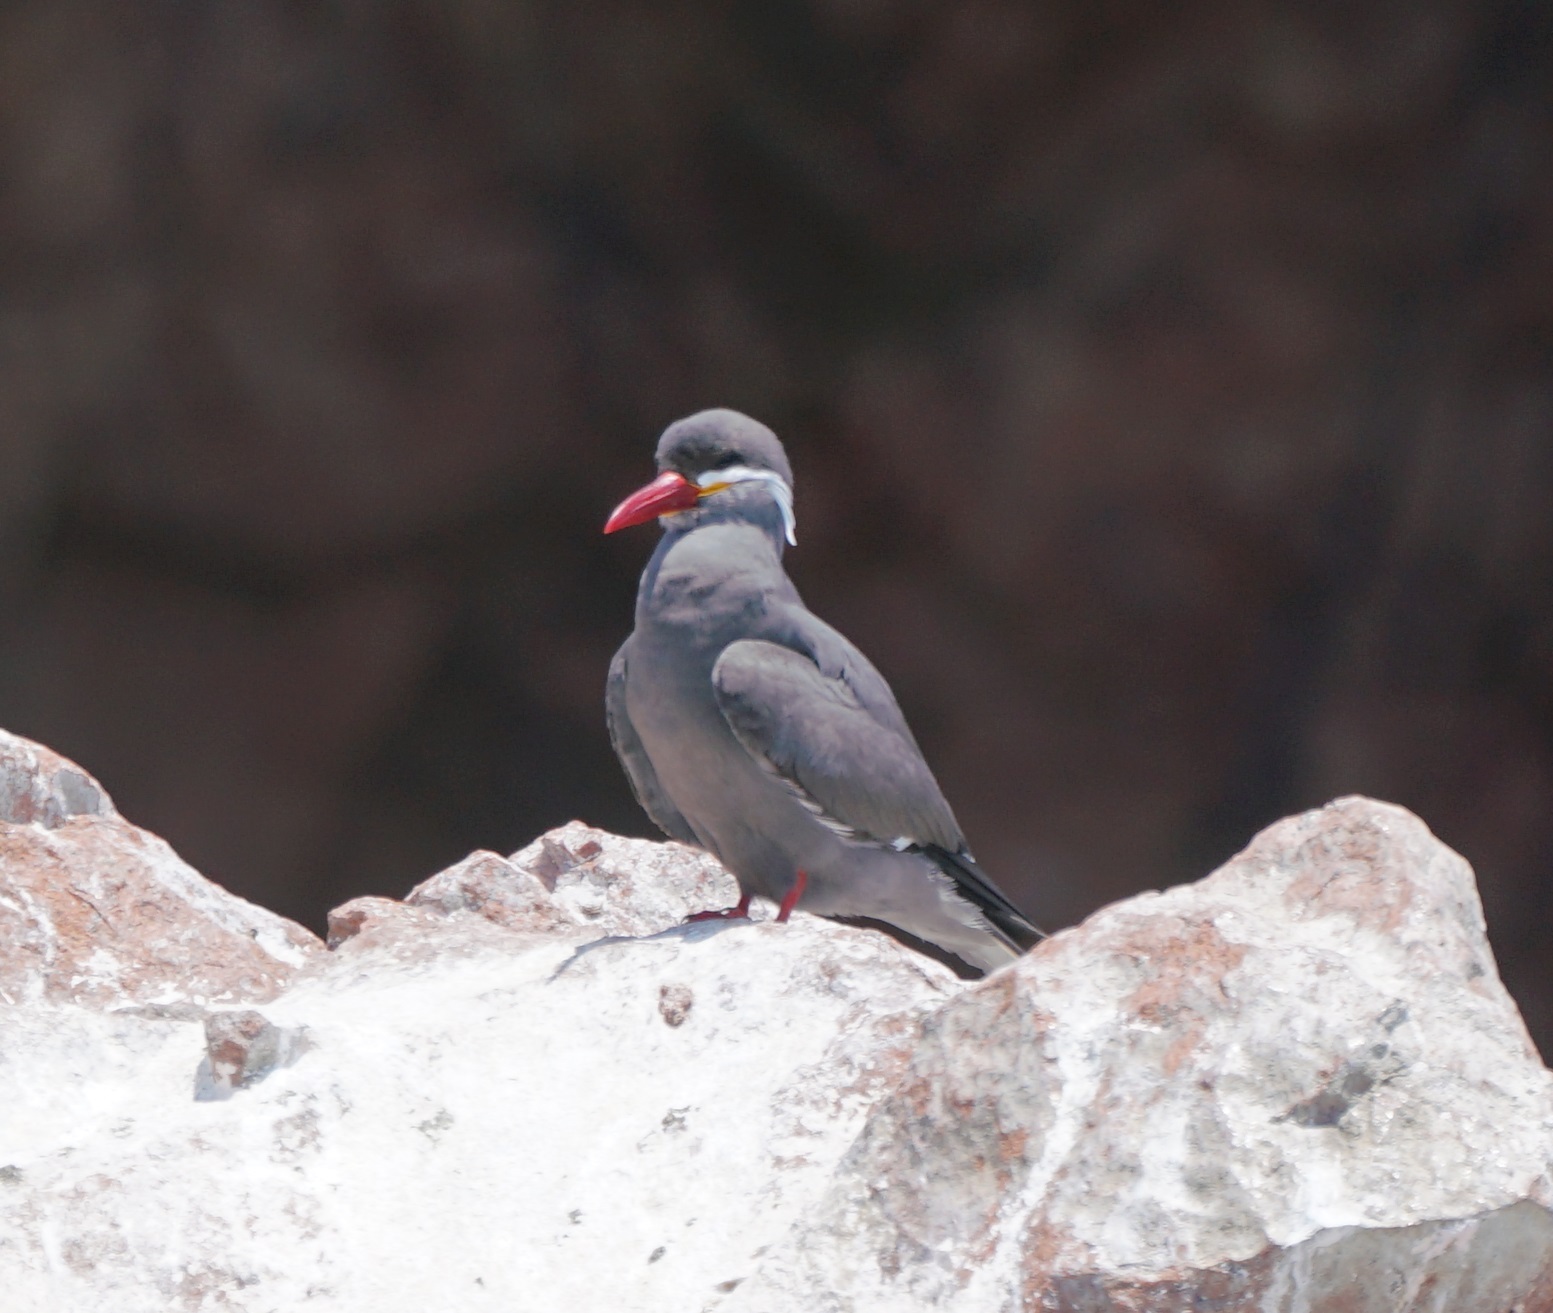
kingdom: Animalia
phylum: Chordata
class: Aves
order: Charadriiformes
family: Laridae
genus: Larosterna
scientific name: Larosterna inca
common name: Inca tern
